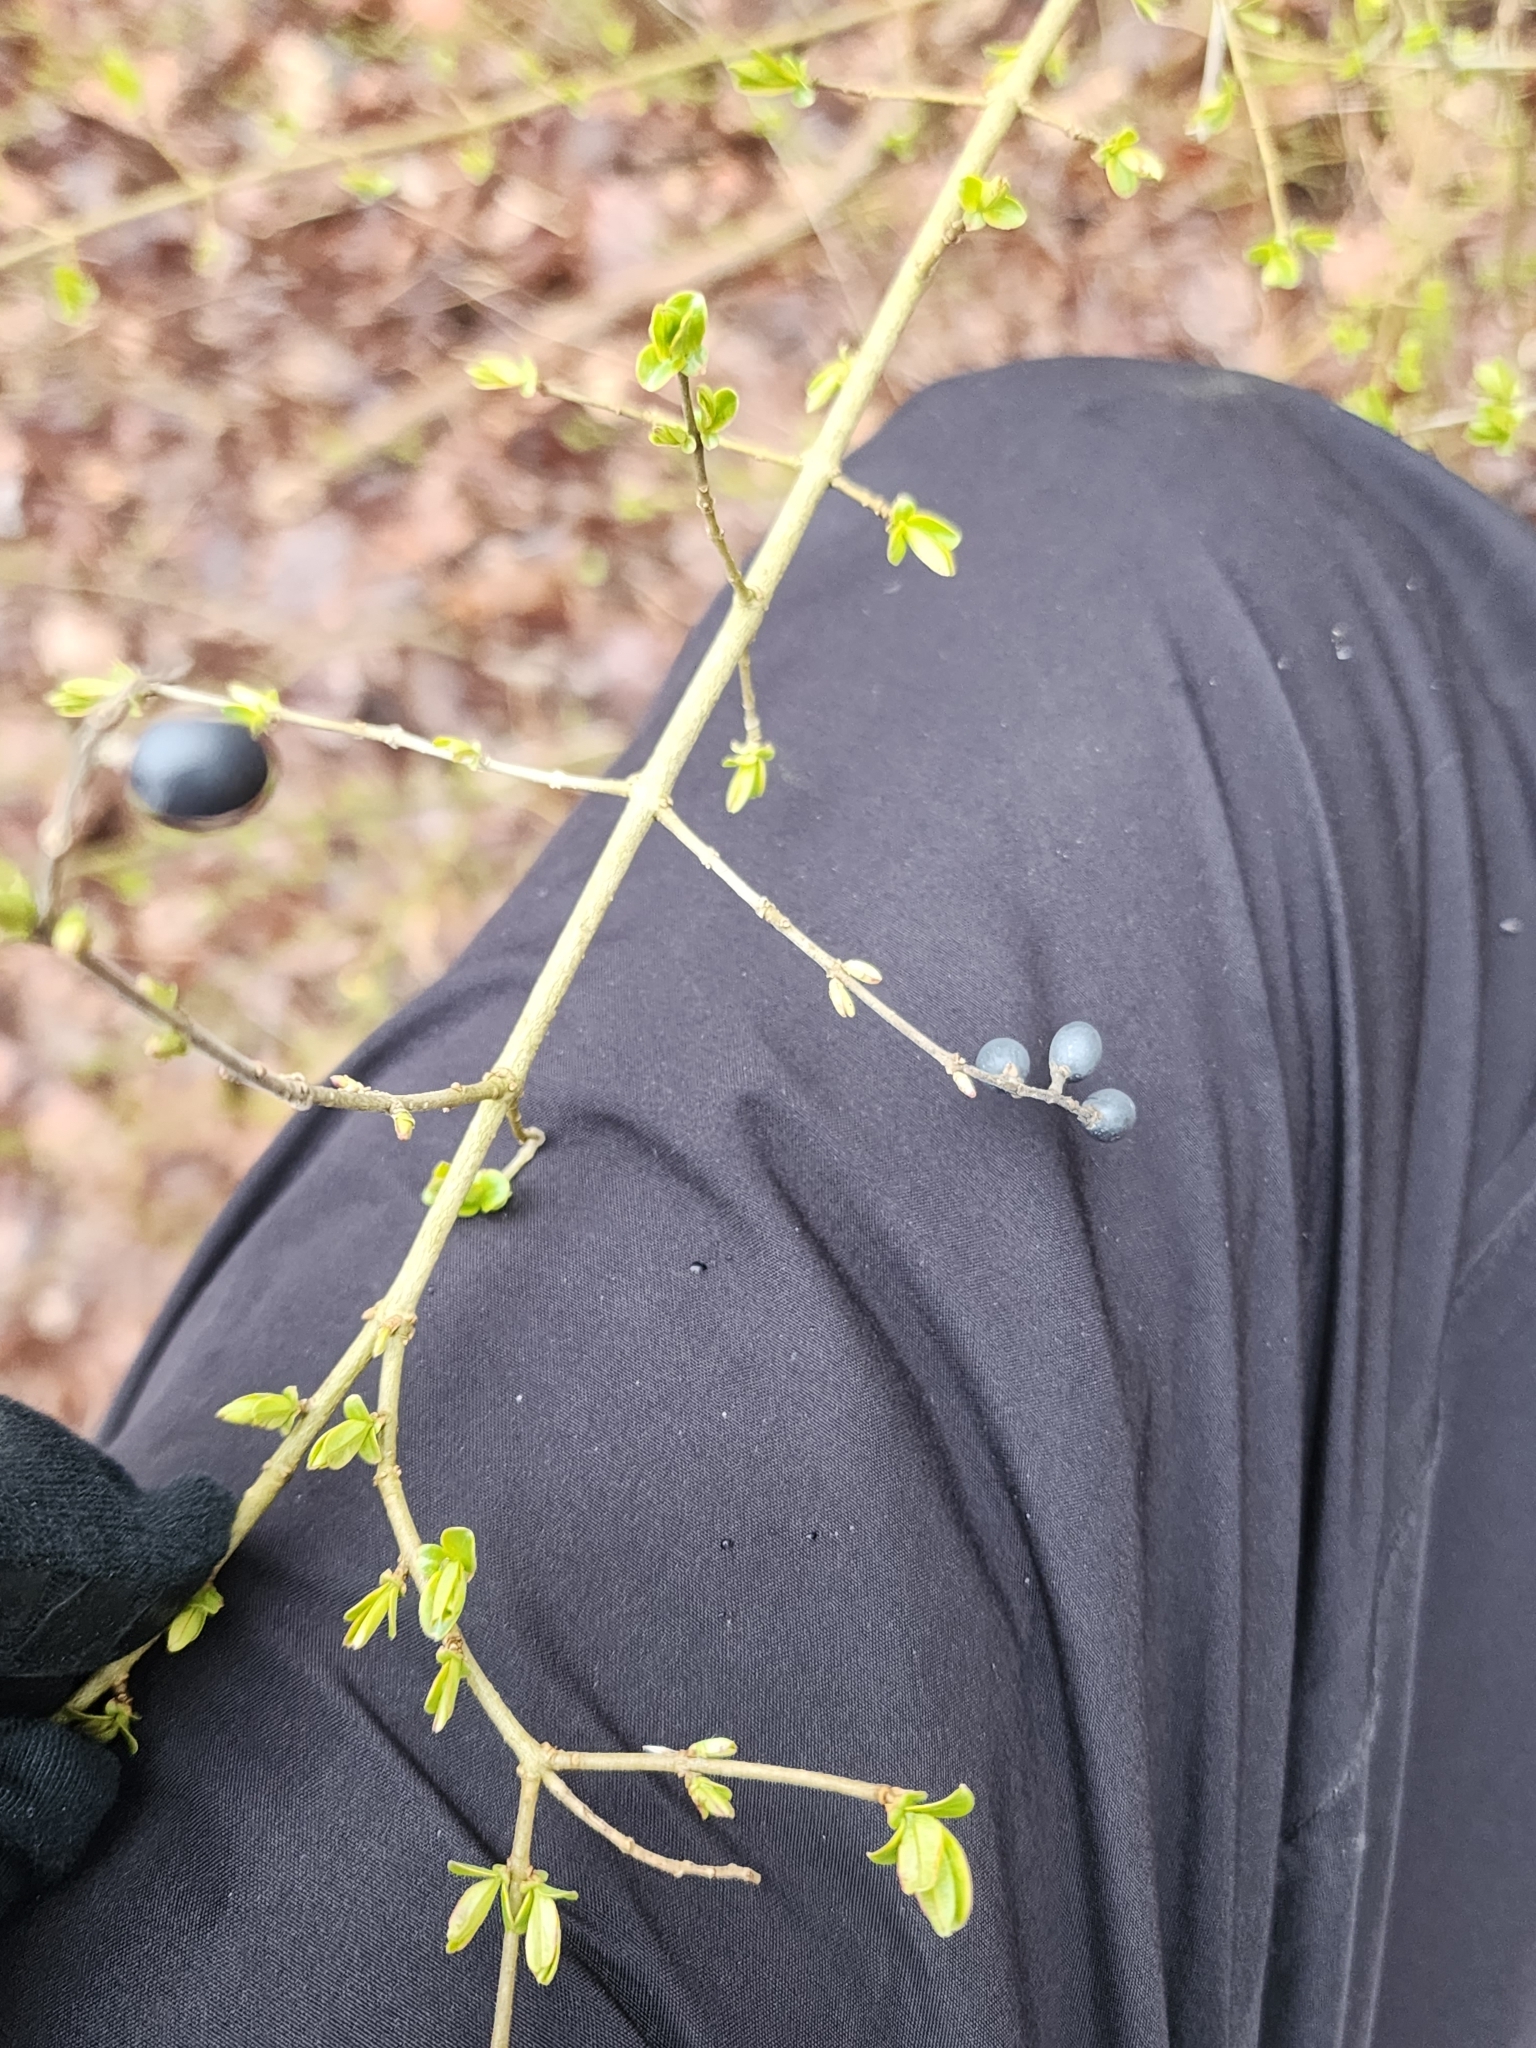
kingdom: Plantae
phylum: Tracheophyta
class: Magnoliopsida
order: Lamiales
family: Oleaceae
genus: Ligustrum
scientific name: Ligustrum obtusifolium
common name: Border privet
